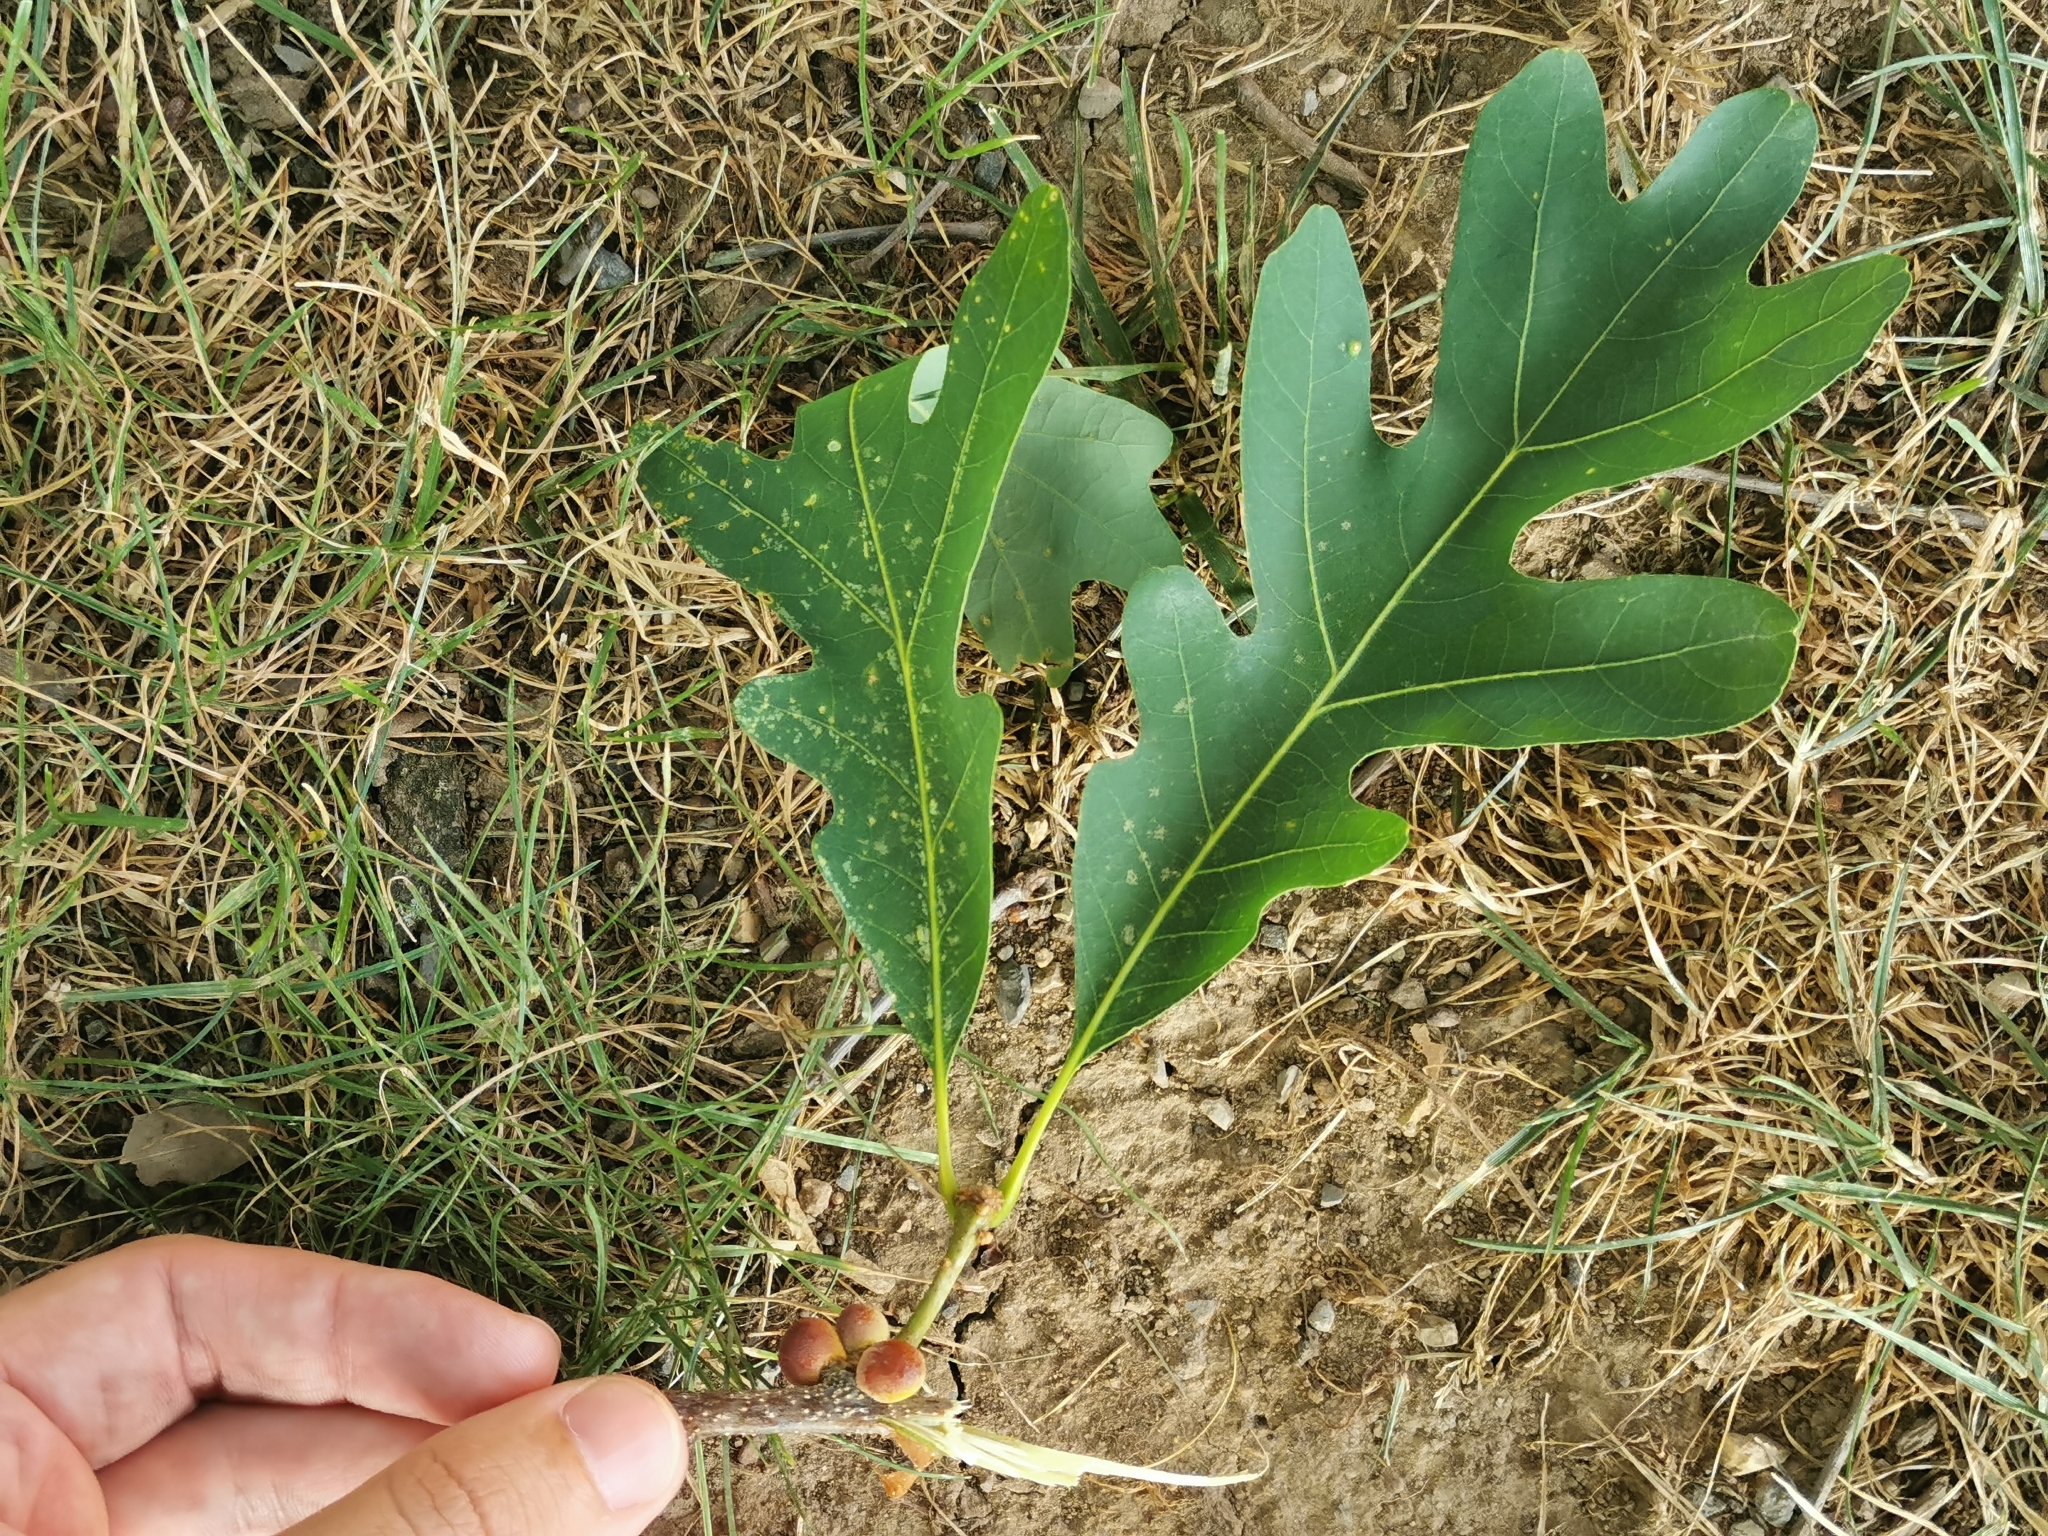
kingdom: Animalia
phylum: Arthropoda
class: Insecta
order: Hymenoptera
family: Cynipidae
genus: Disholcaspis
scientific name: Disholcaspis quercusglobulus
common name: Round bullet gall wasp
